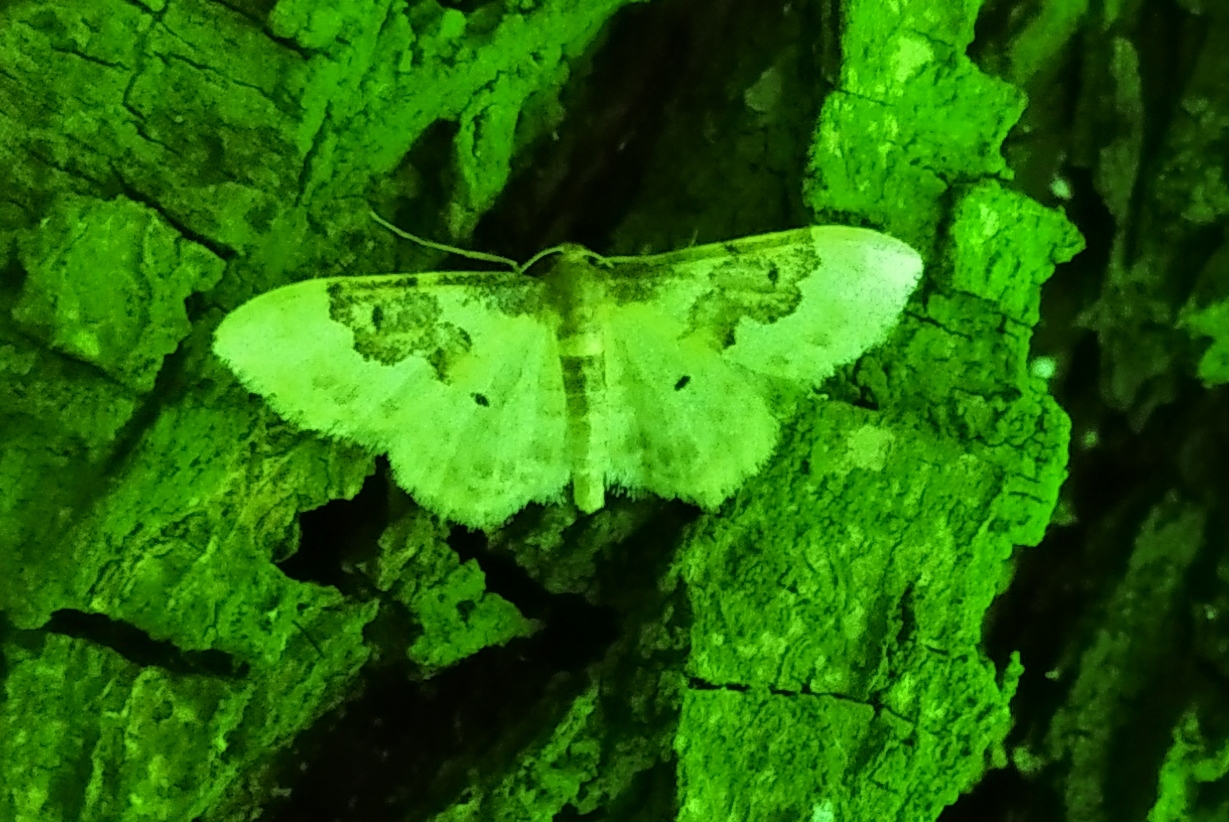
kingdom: Animalia
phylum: Arthropoda
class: Insecta
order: Lepidoptera
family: Geometridae
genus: Idaea
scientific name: Idaea rusticata
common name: Least carpet
